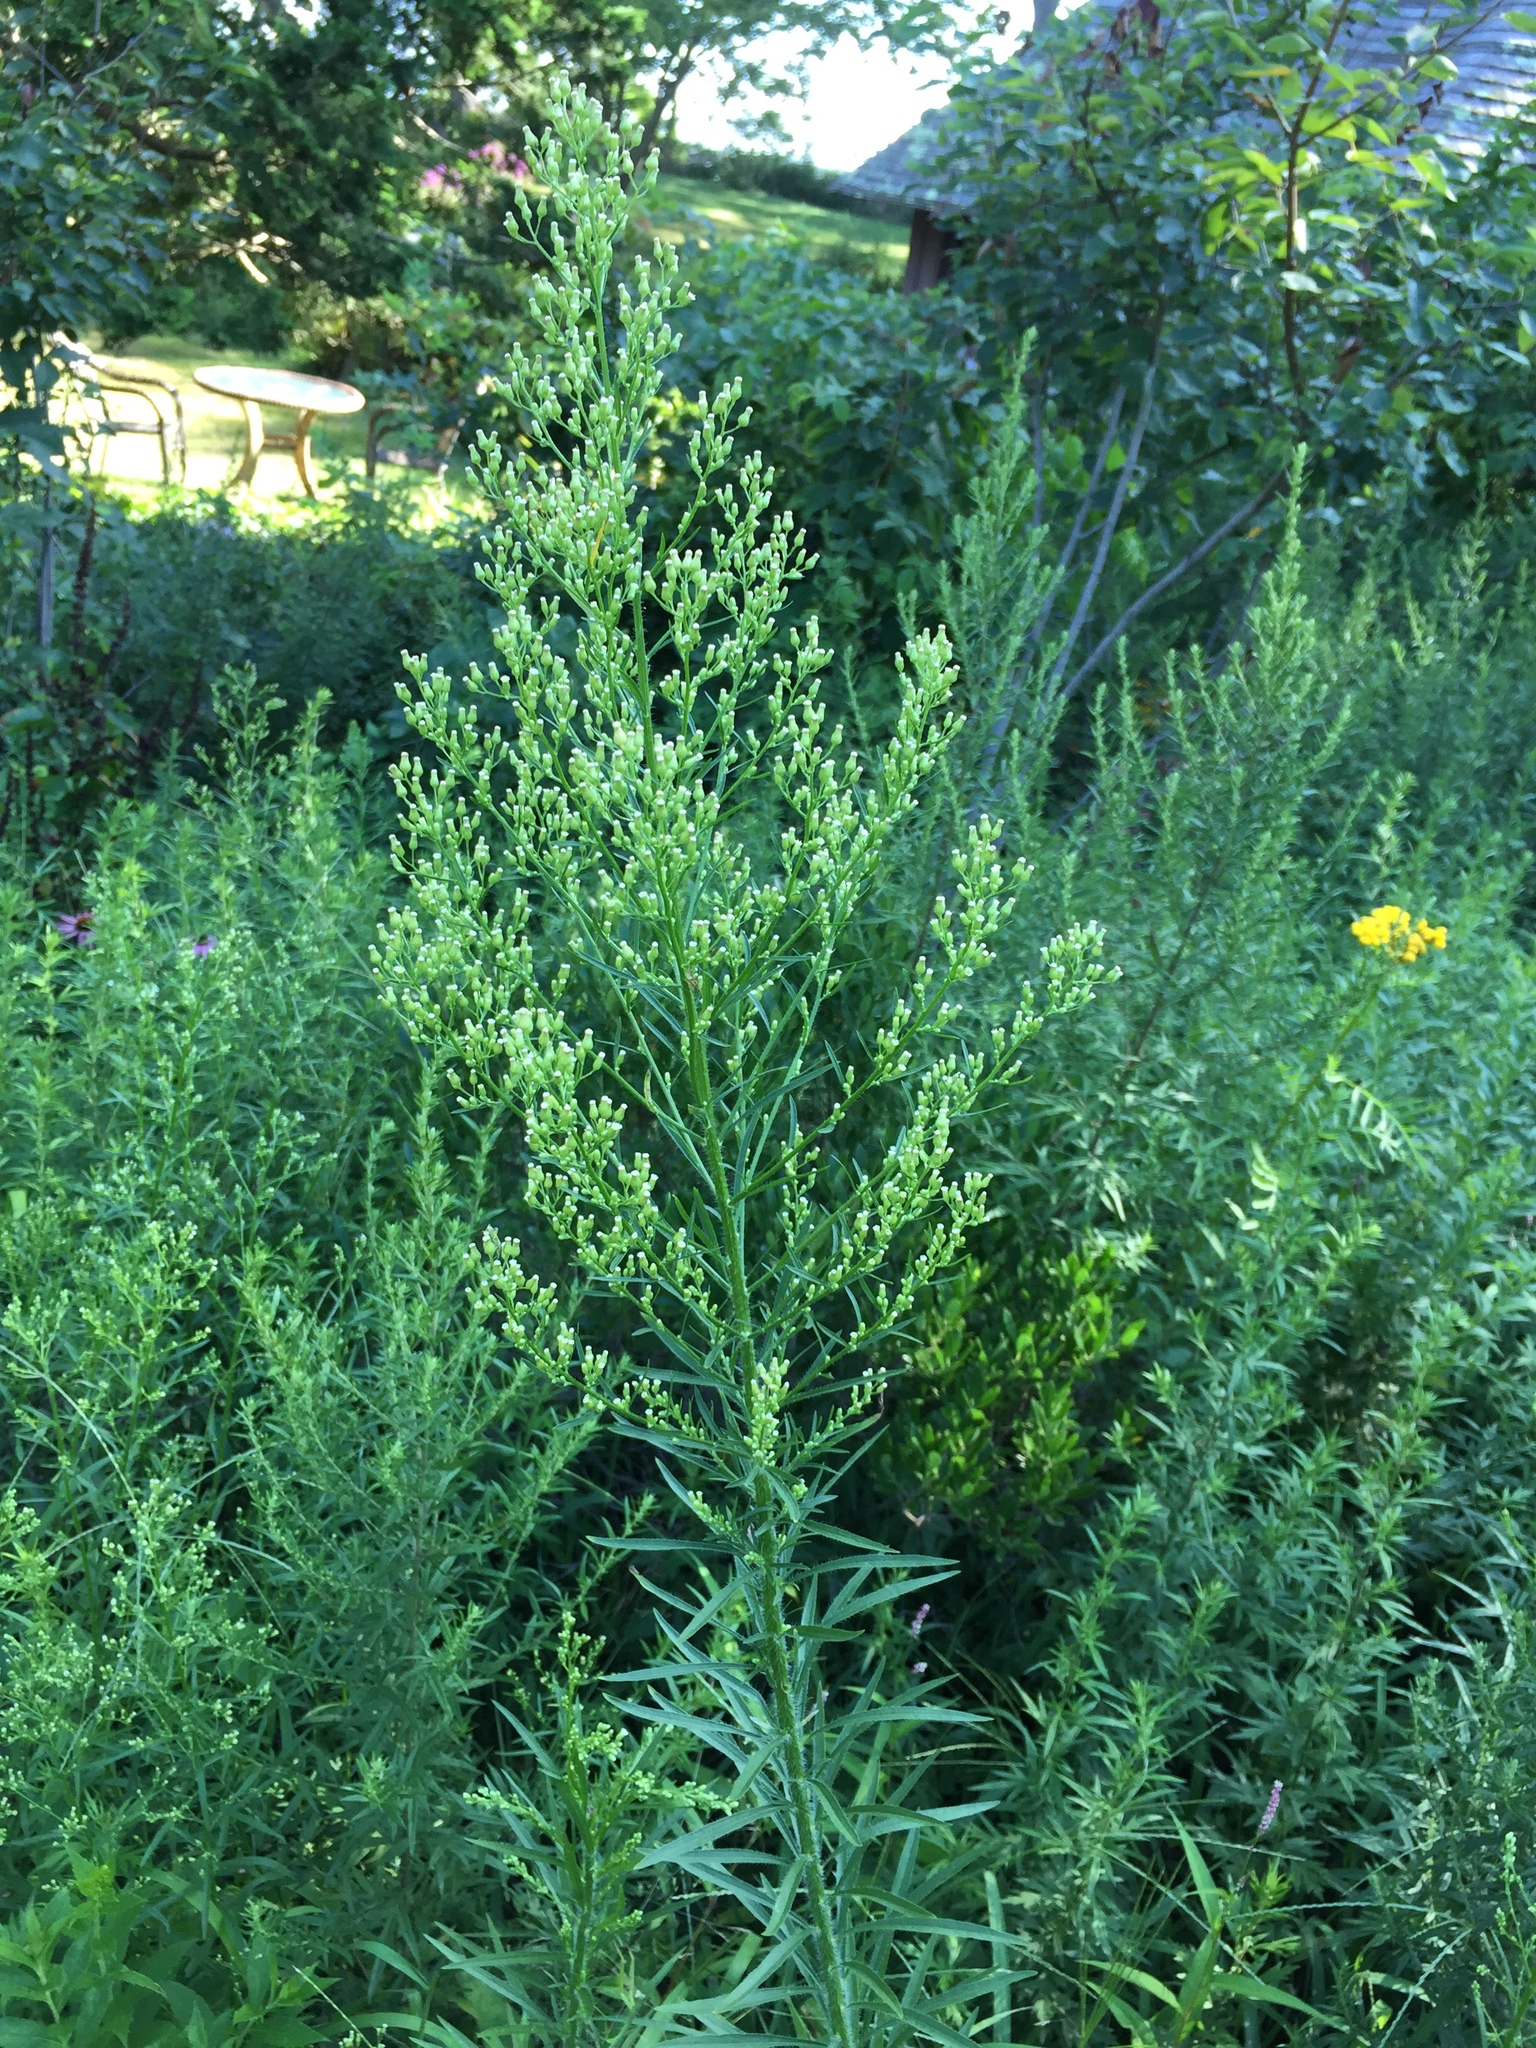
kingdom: Plantae
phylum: Tracheophyta
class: Magnoliopsida
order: Asterales
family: Asteraceae
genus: Erigeron
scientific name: Erigeron canadensis
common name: Canadian fleabane
